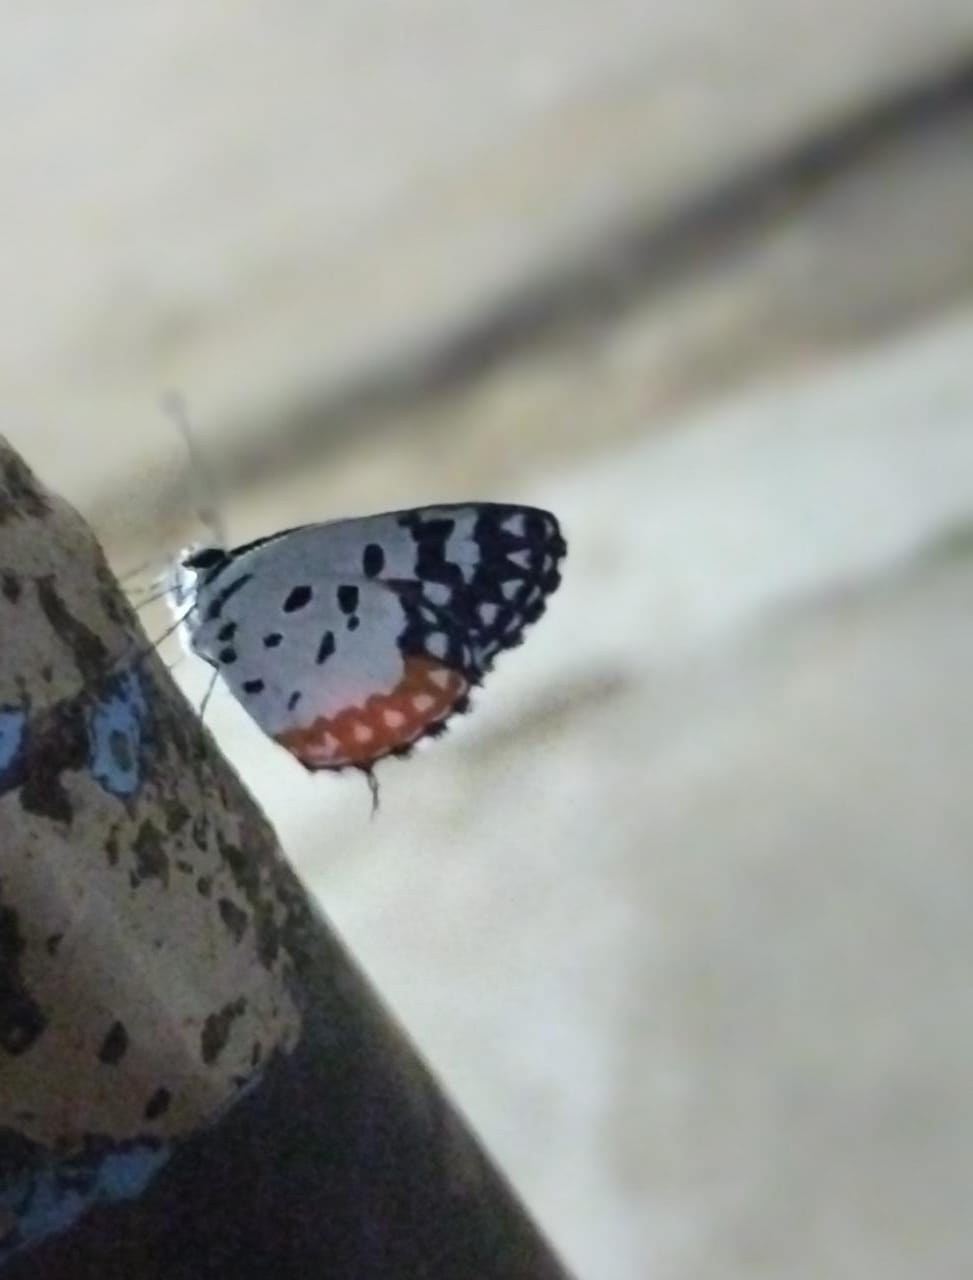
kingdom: Animalia
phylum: Arthropoda
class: Insecta
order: Lepidoptera
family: Lycaenidae
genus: Talicada
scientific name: Talicada nyseus
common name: Red pierrot
